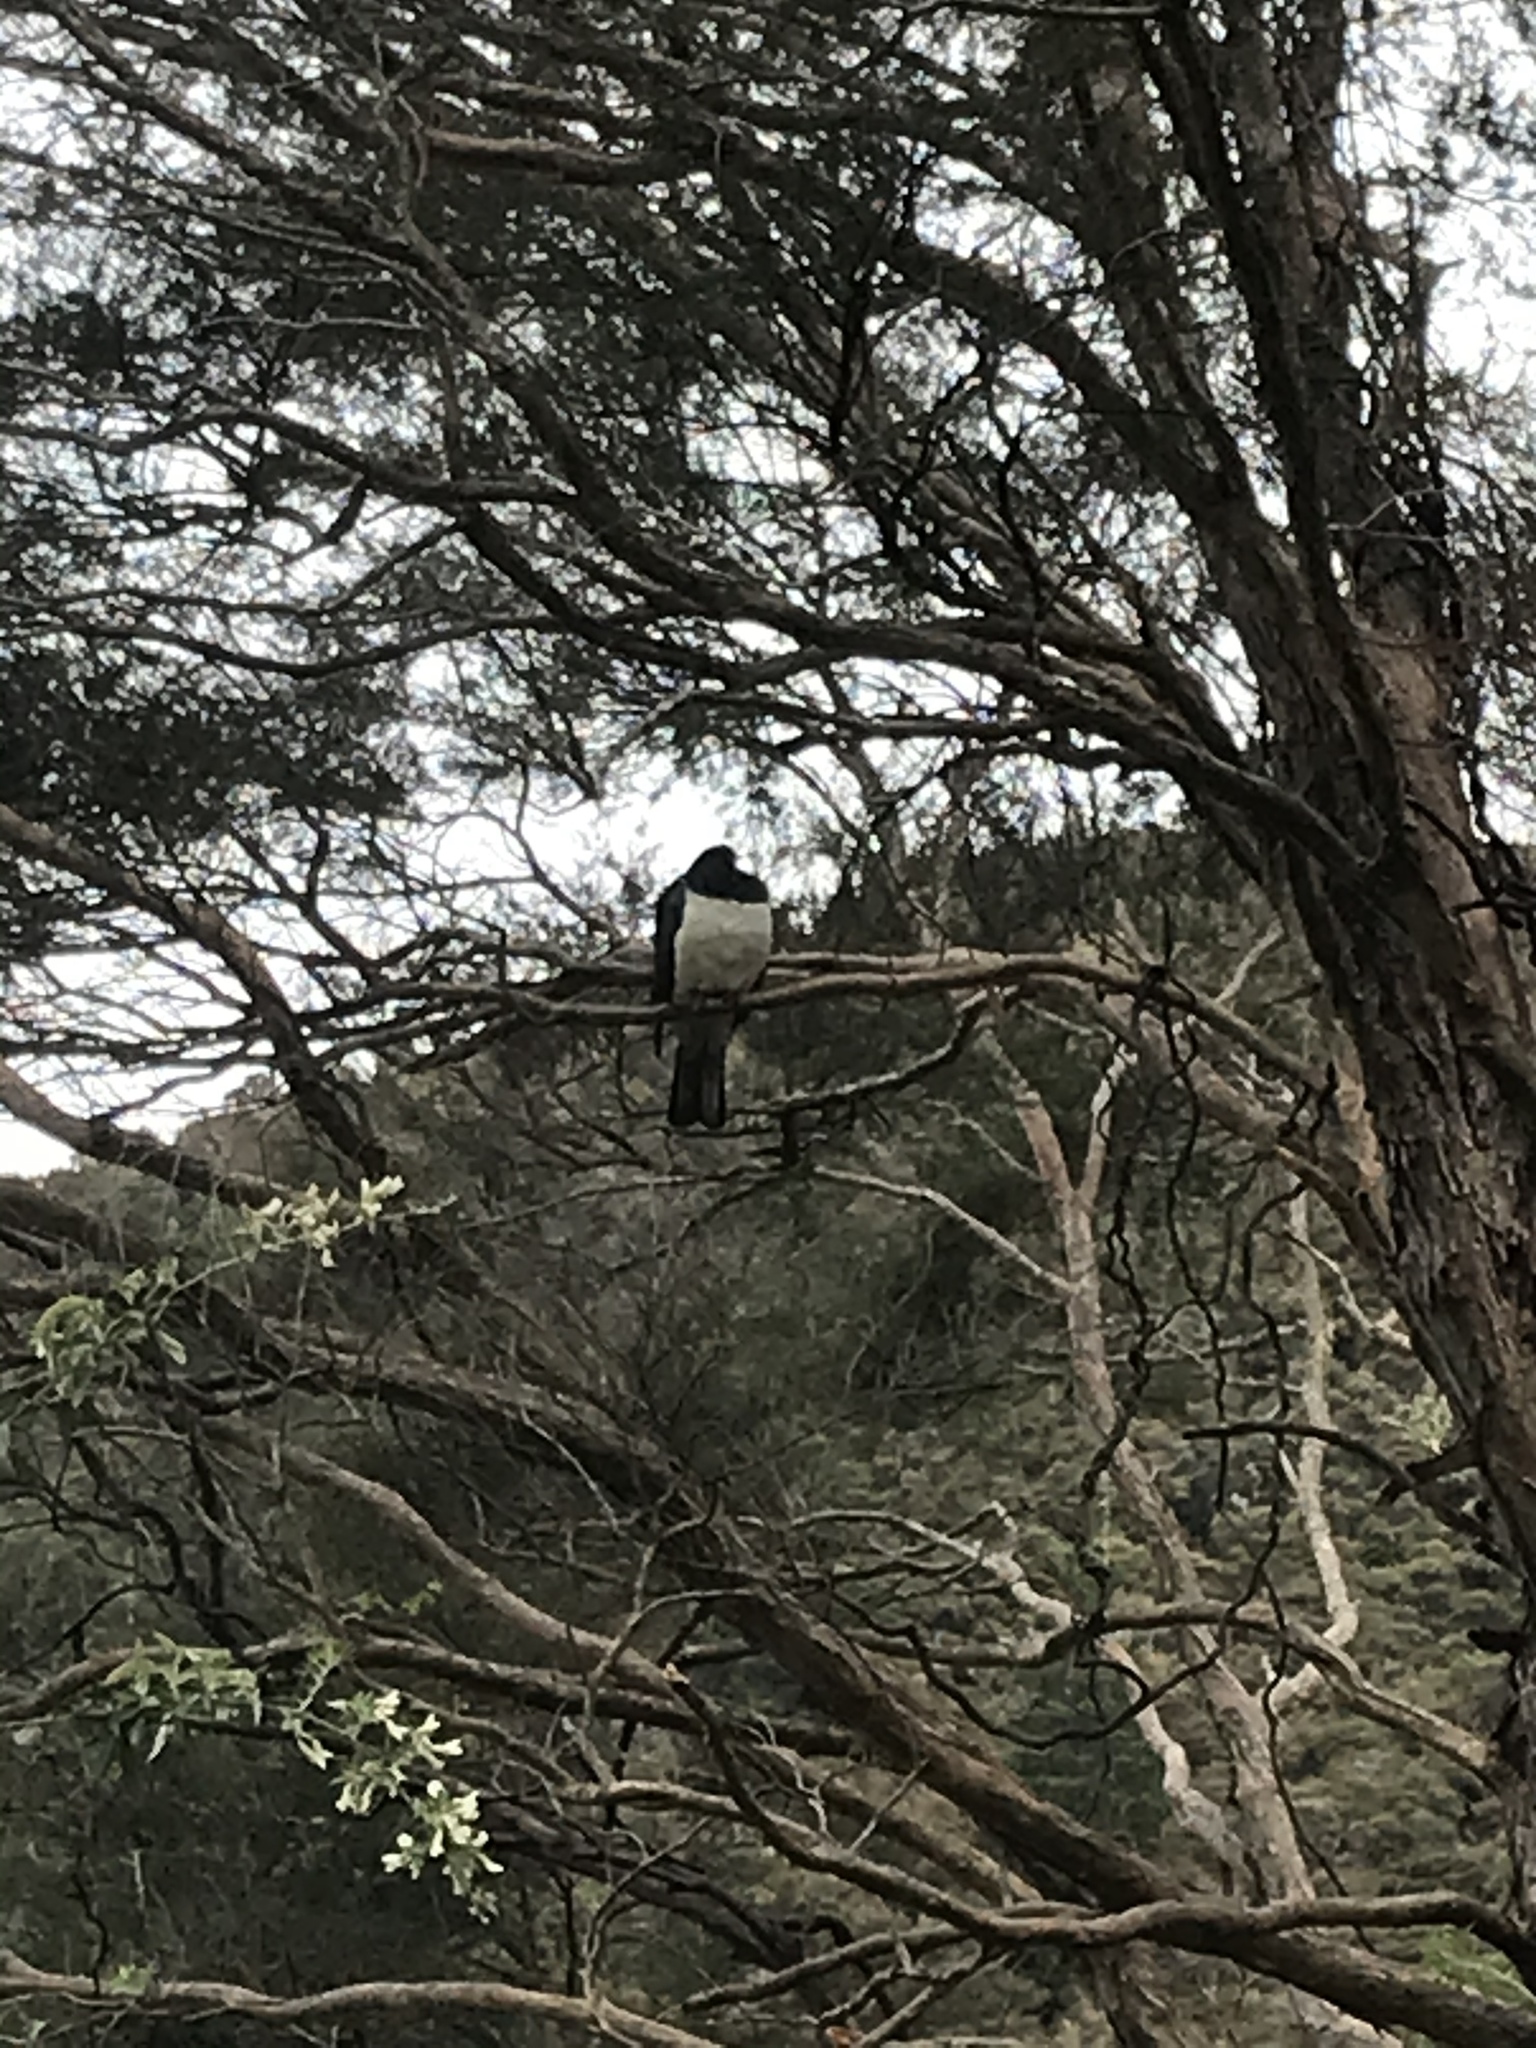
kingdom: Animalia
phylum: Chordata
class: Aves
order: Columbiformes
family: Columbidae
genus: Hemiphaga
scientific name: Hemiphaga novaeseelandiae
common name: New zealand pigeon
